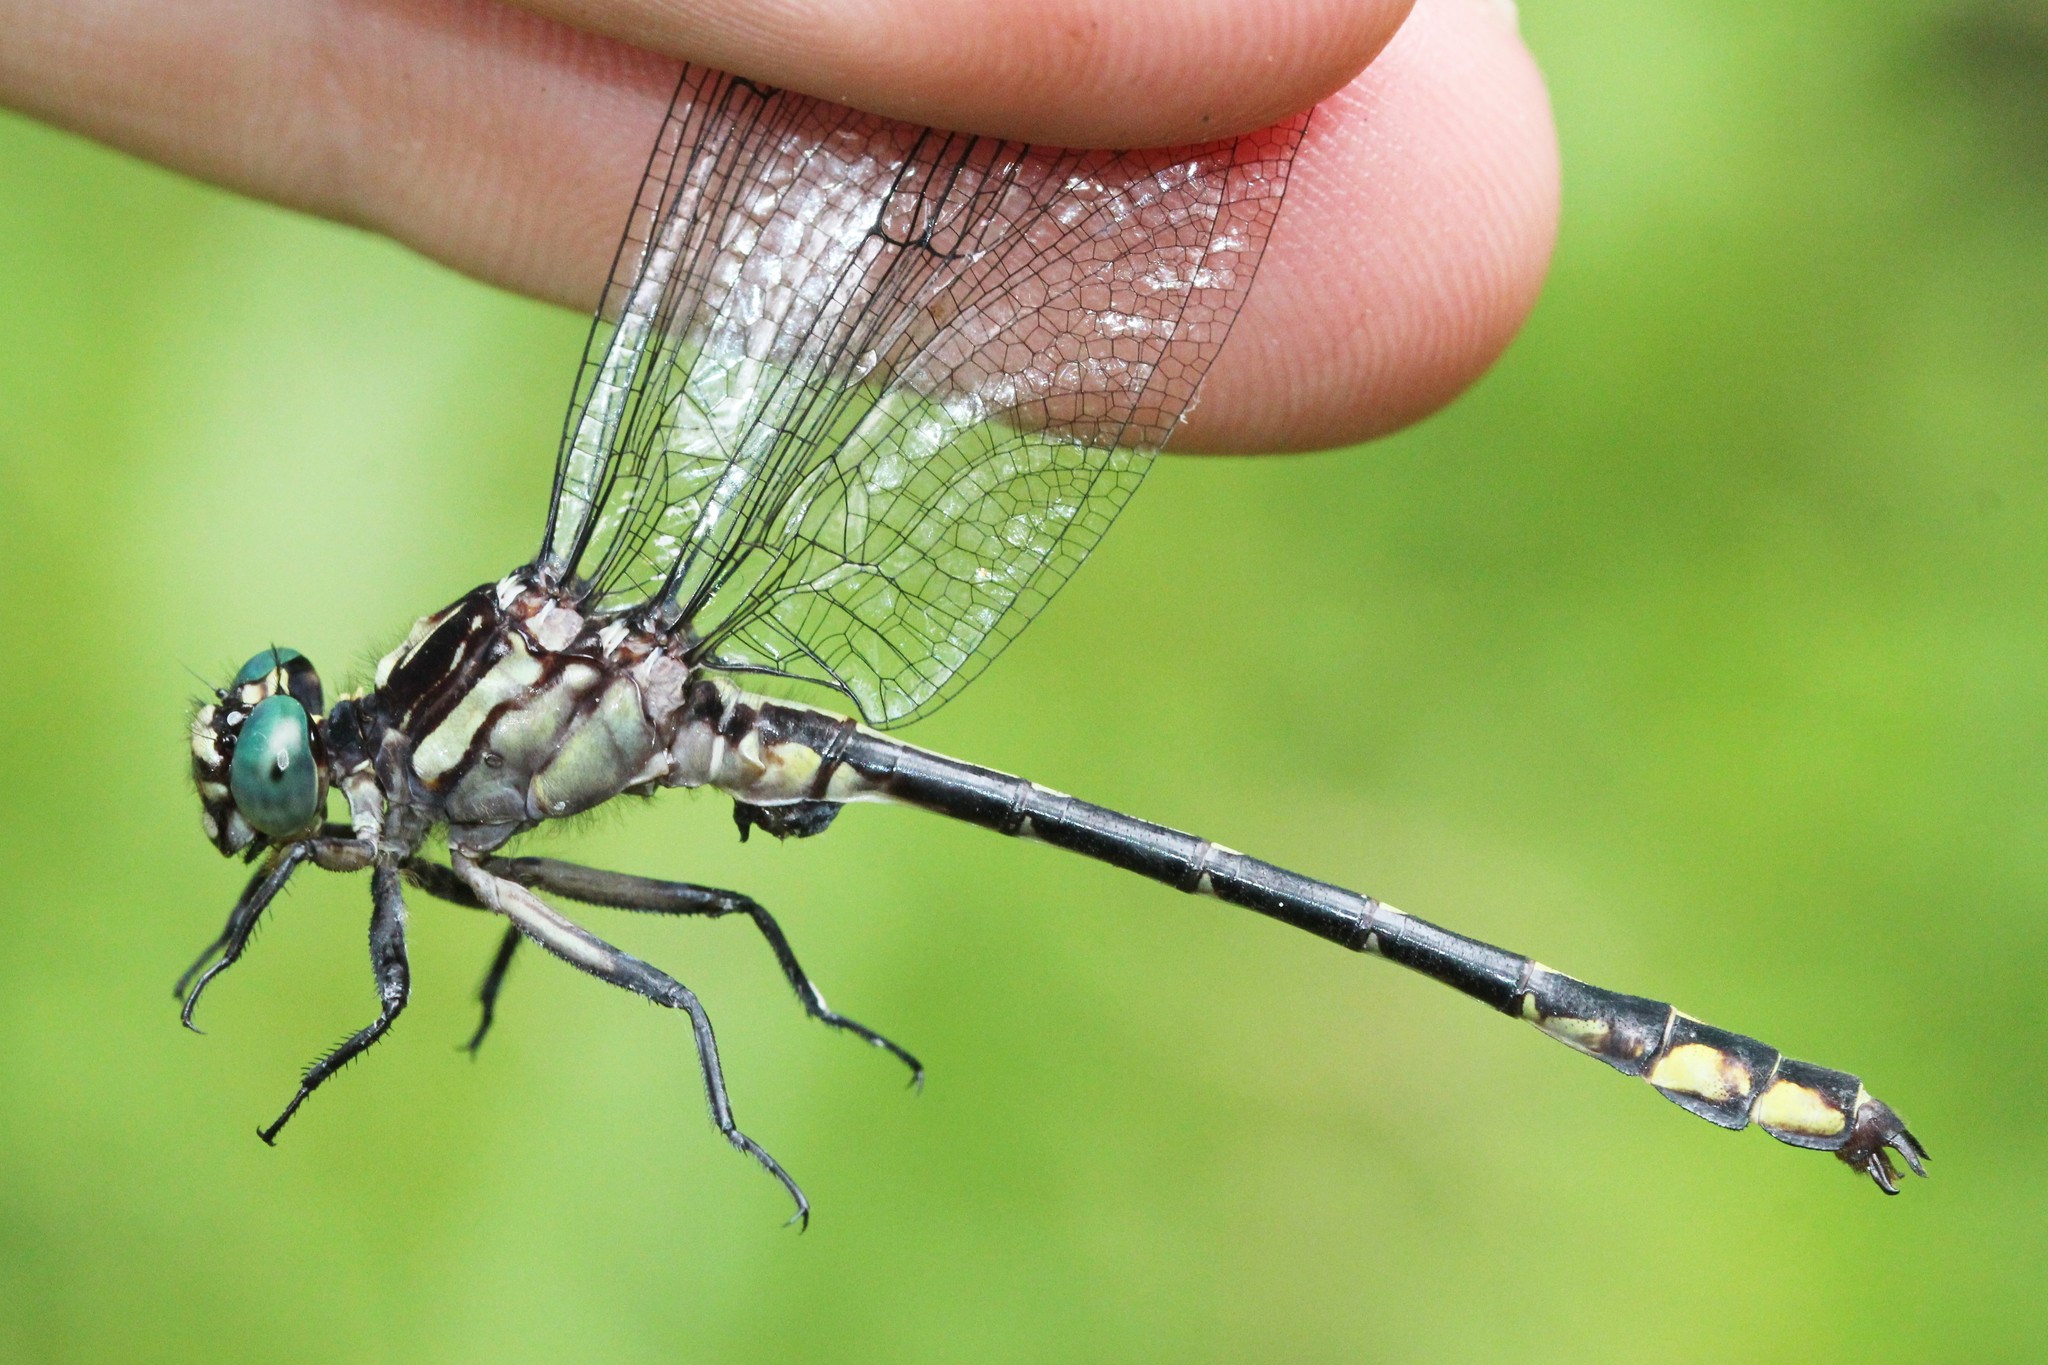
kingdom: Animalia
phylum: Arthropoda
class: Insecta
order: Odonata
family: Gomphidae
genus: Stylurus
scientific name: Stylurus amnicola
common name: Riverine clubtail
